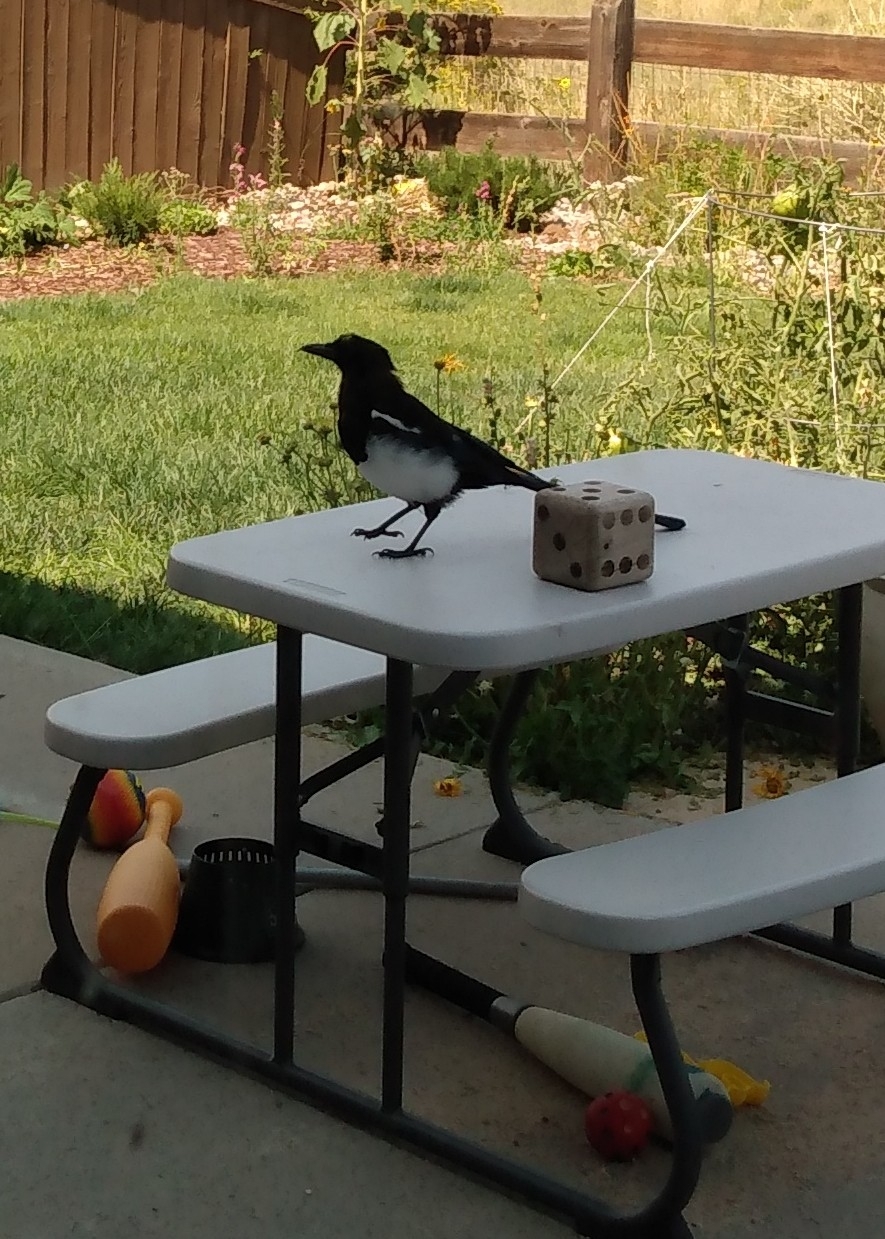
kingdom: Animalia
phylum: Chordata
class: Aves
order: Passeriformes
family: Corvidae
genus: Pica
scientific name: Pica hudsonia
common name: Black-billed magpie
